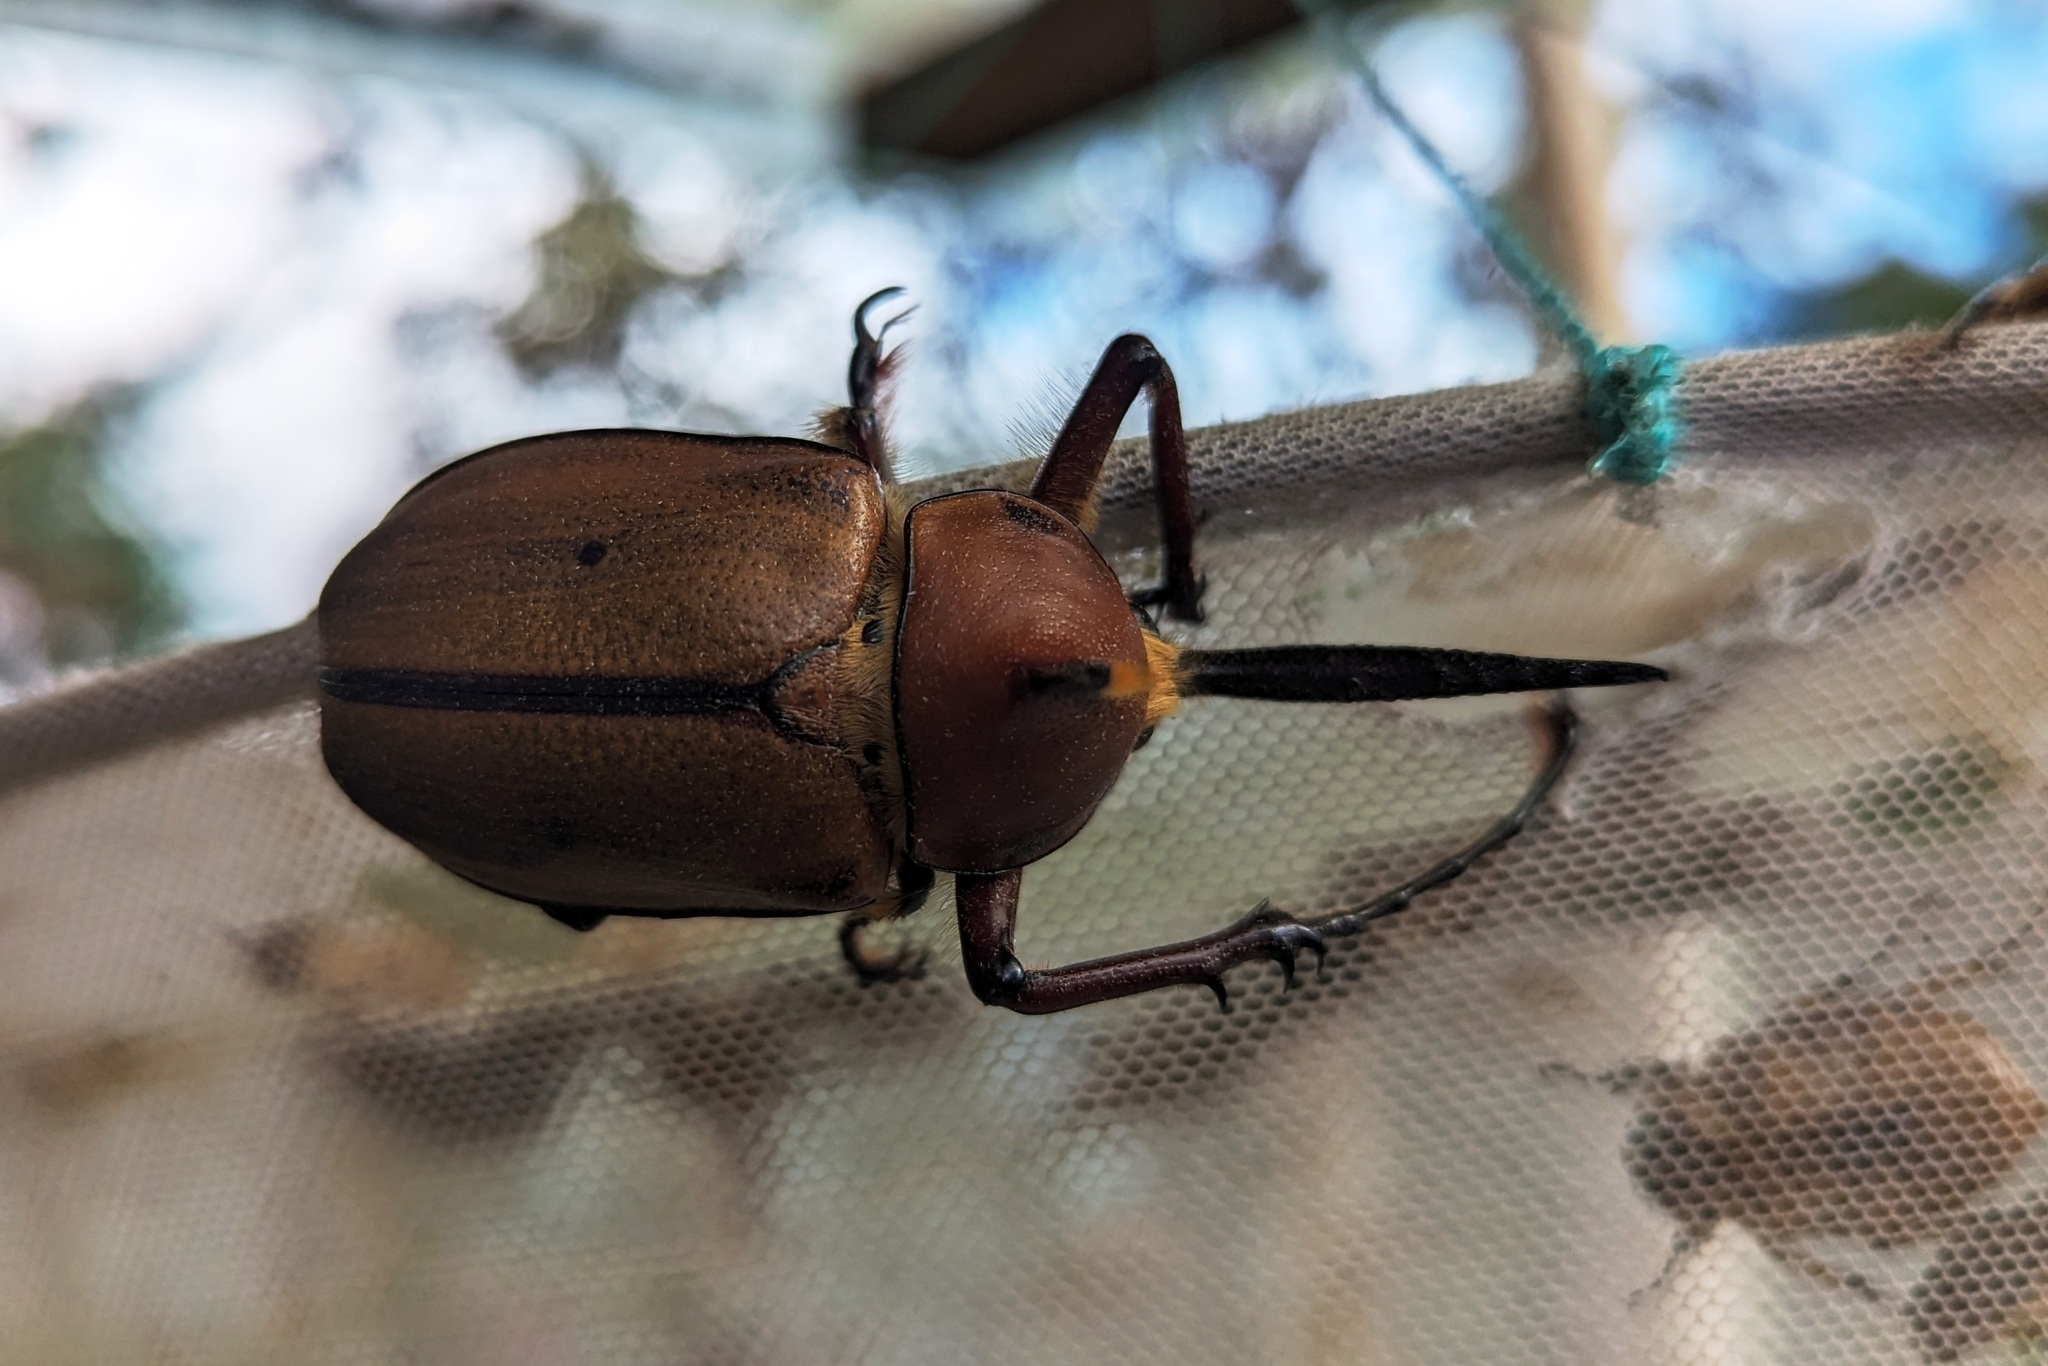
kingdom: Animalia
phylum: Arthropoda
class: Insecta
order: Coleoptera
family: Scarabaeidae
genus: Golofa
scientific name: Golofa eacus
